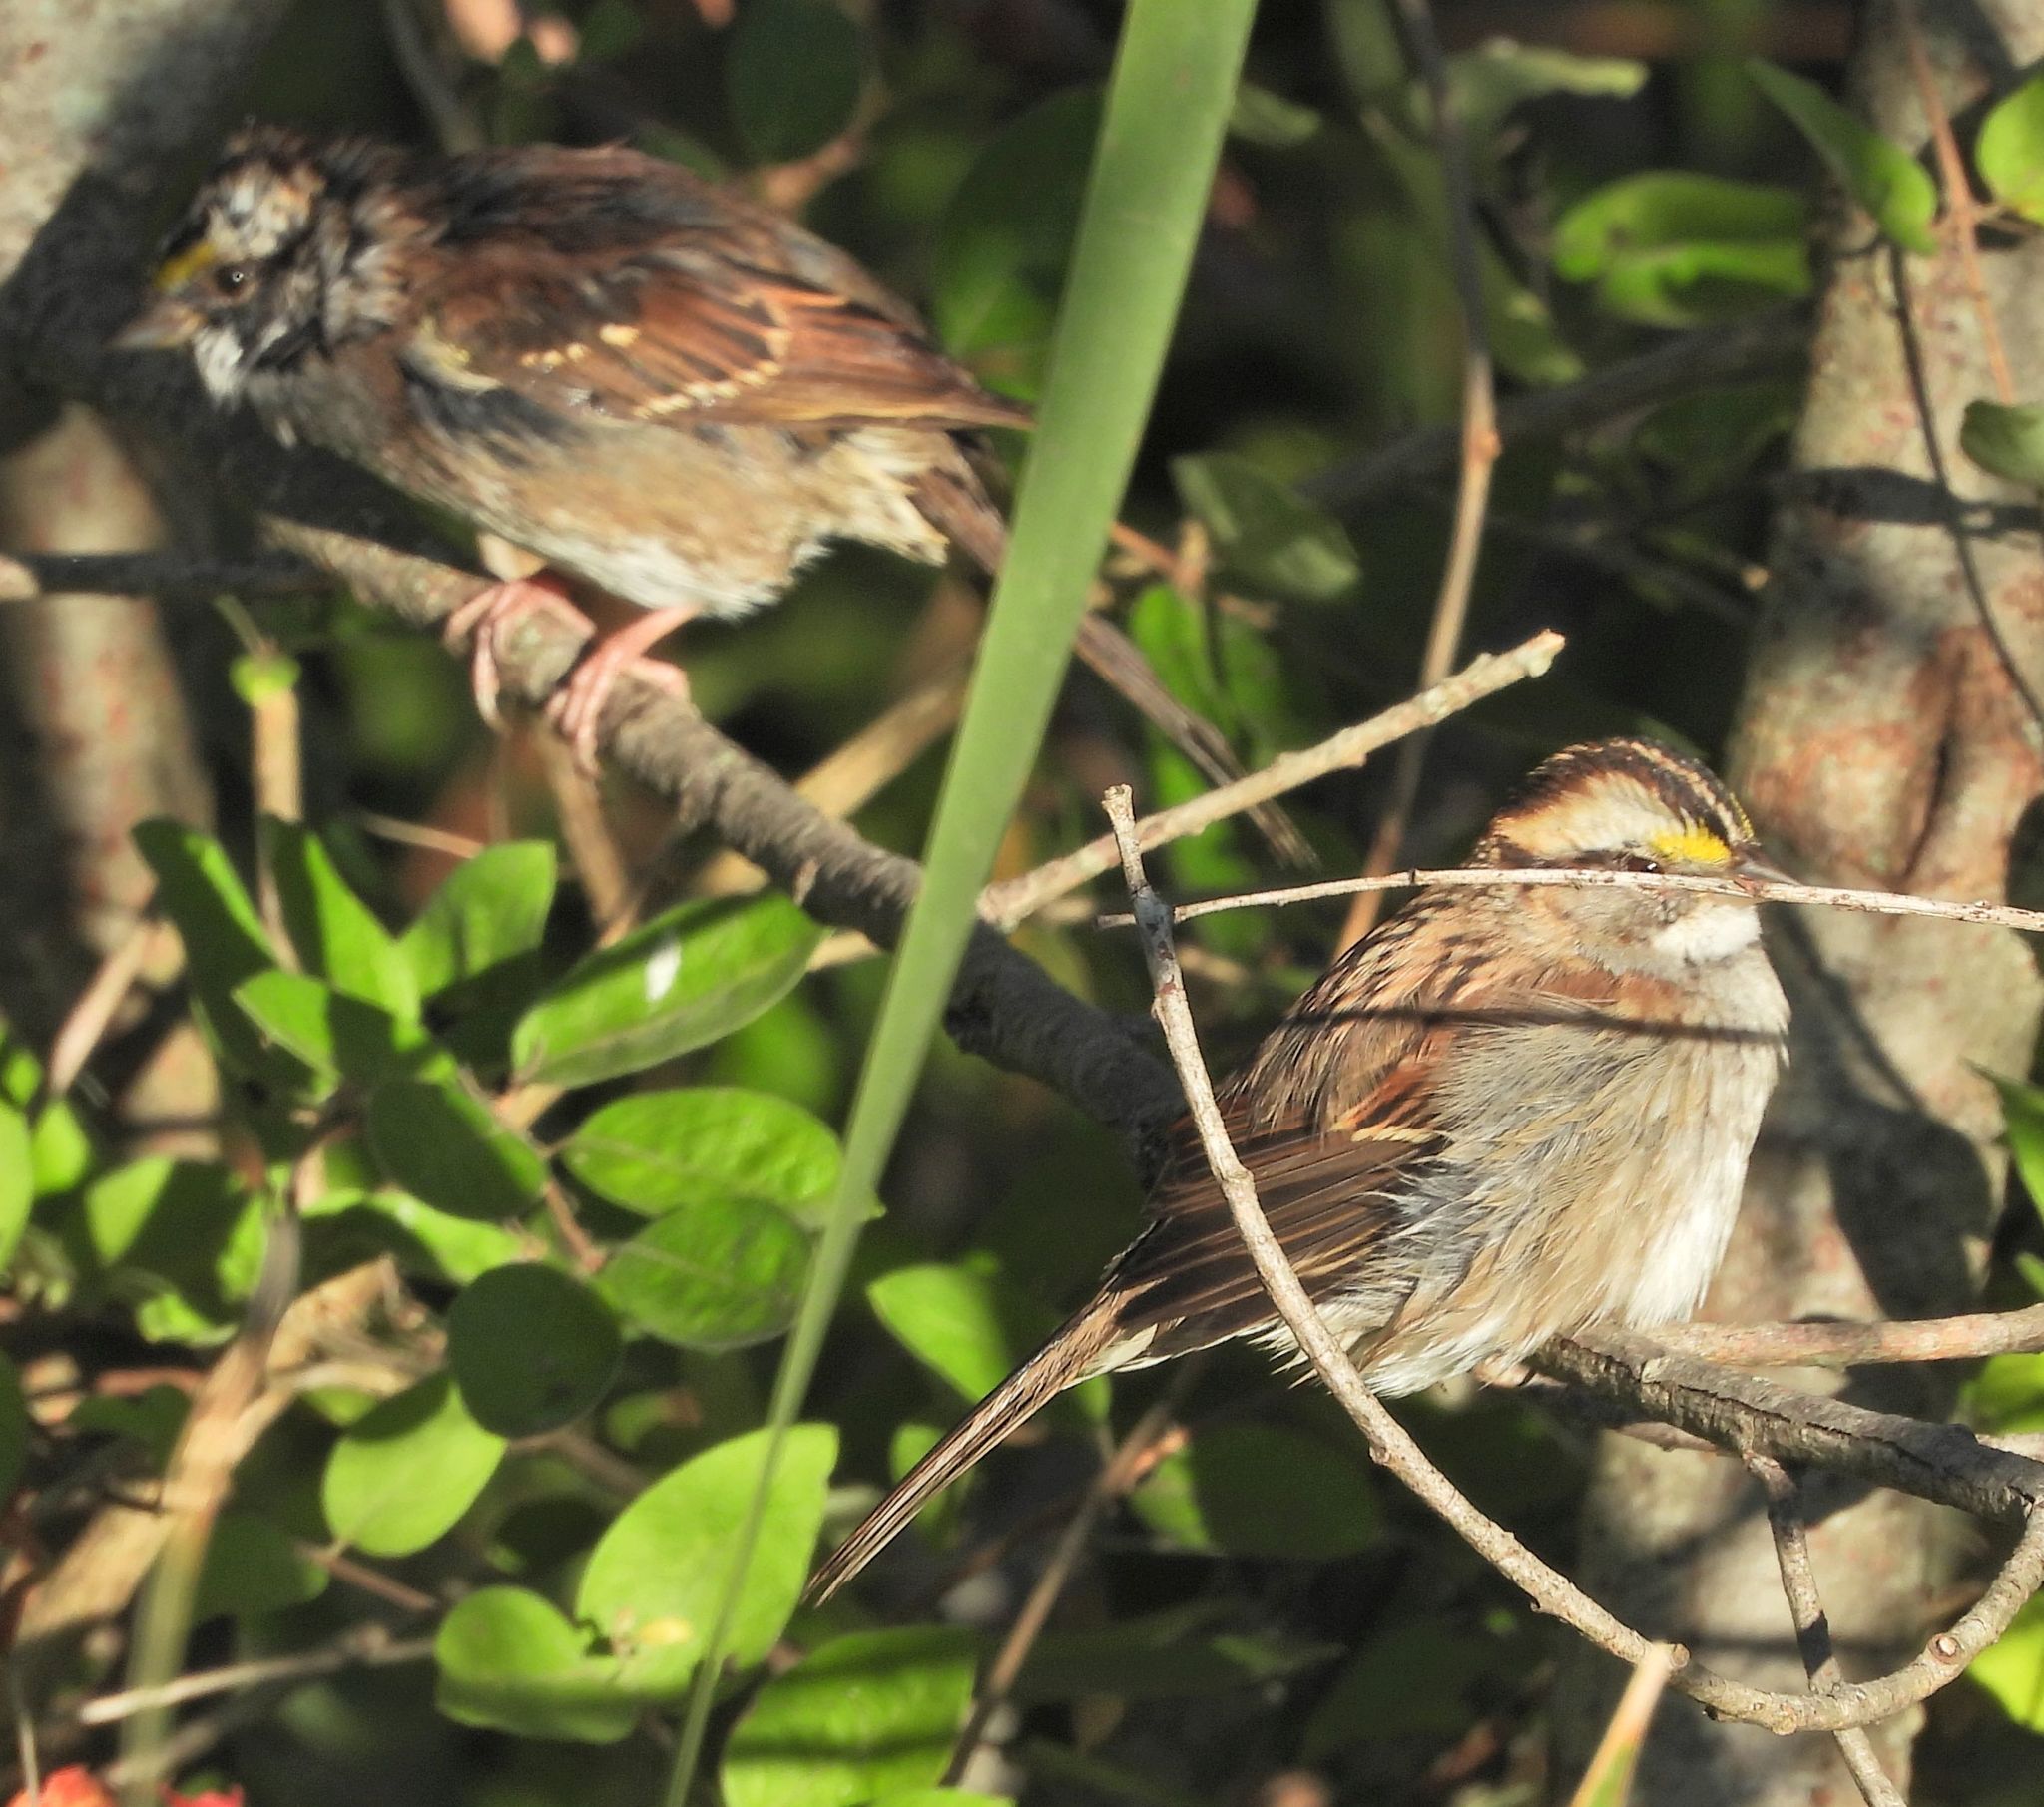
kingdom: Animalia
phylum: Chordata
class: Aves
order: Passeriformes
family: Passerellidae
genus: Zonotrichia
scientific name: Zonotrichia albicollis
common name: White-throated sparrow
